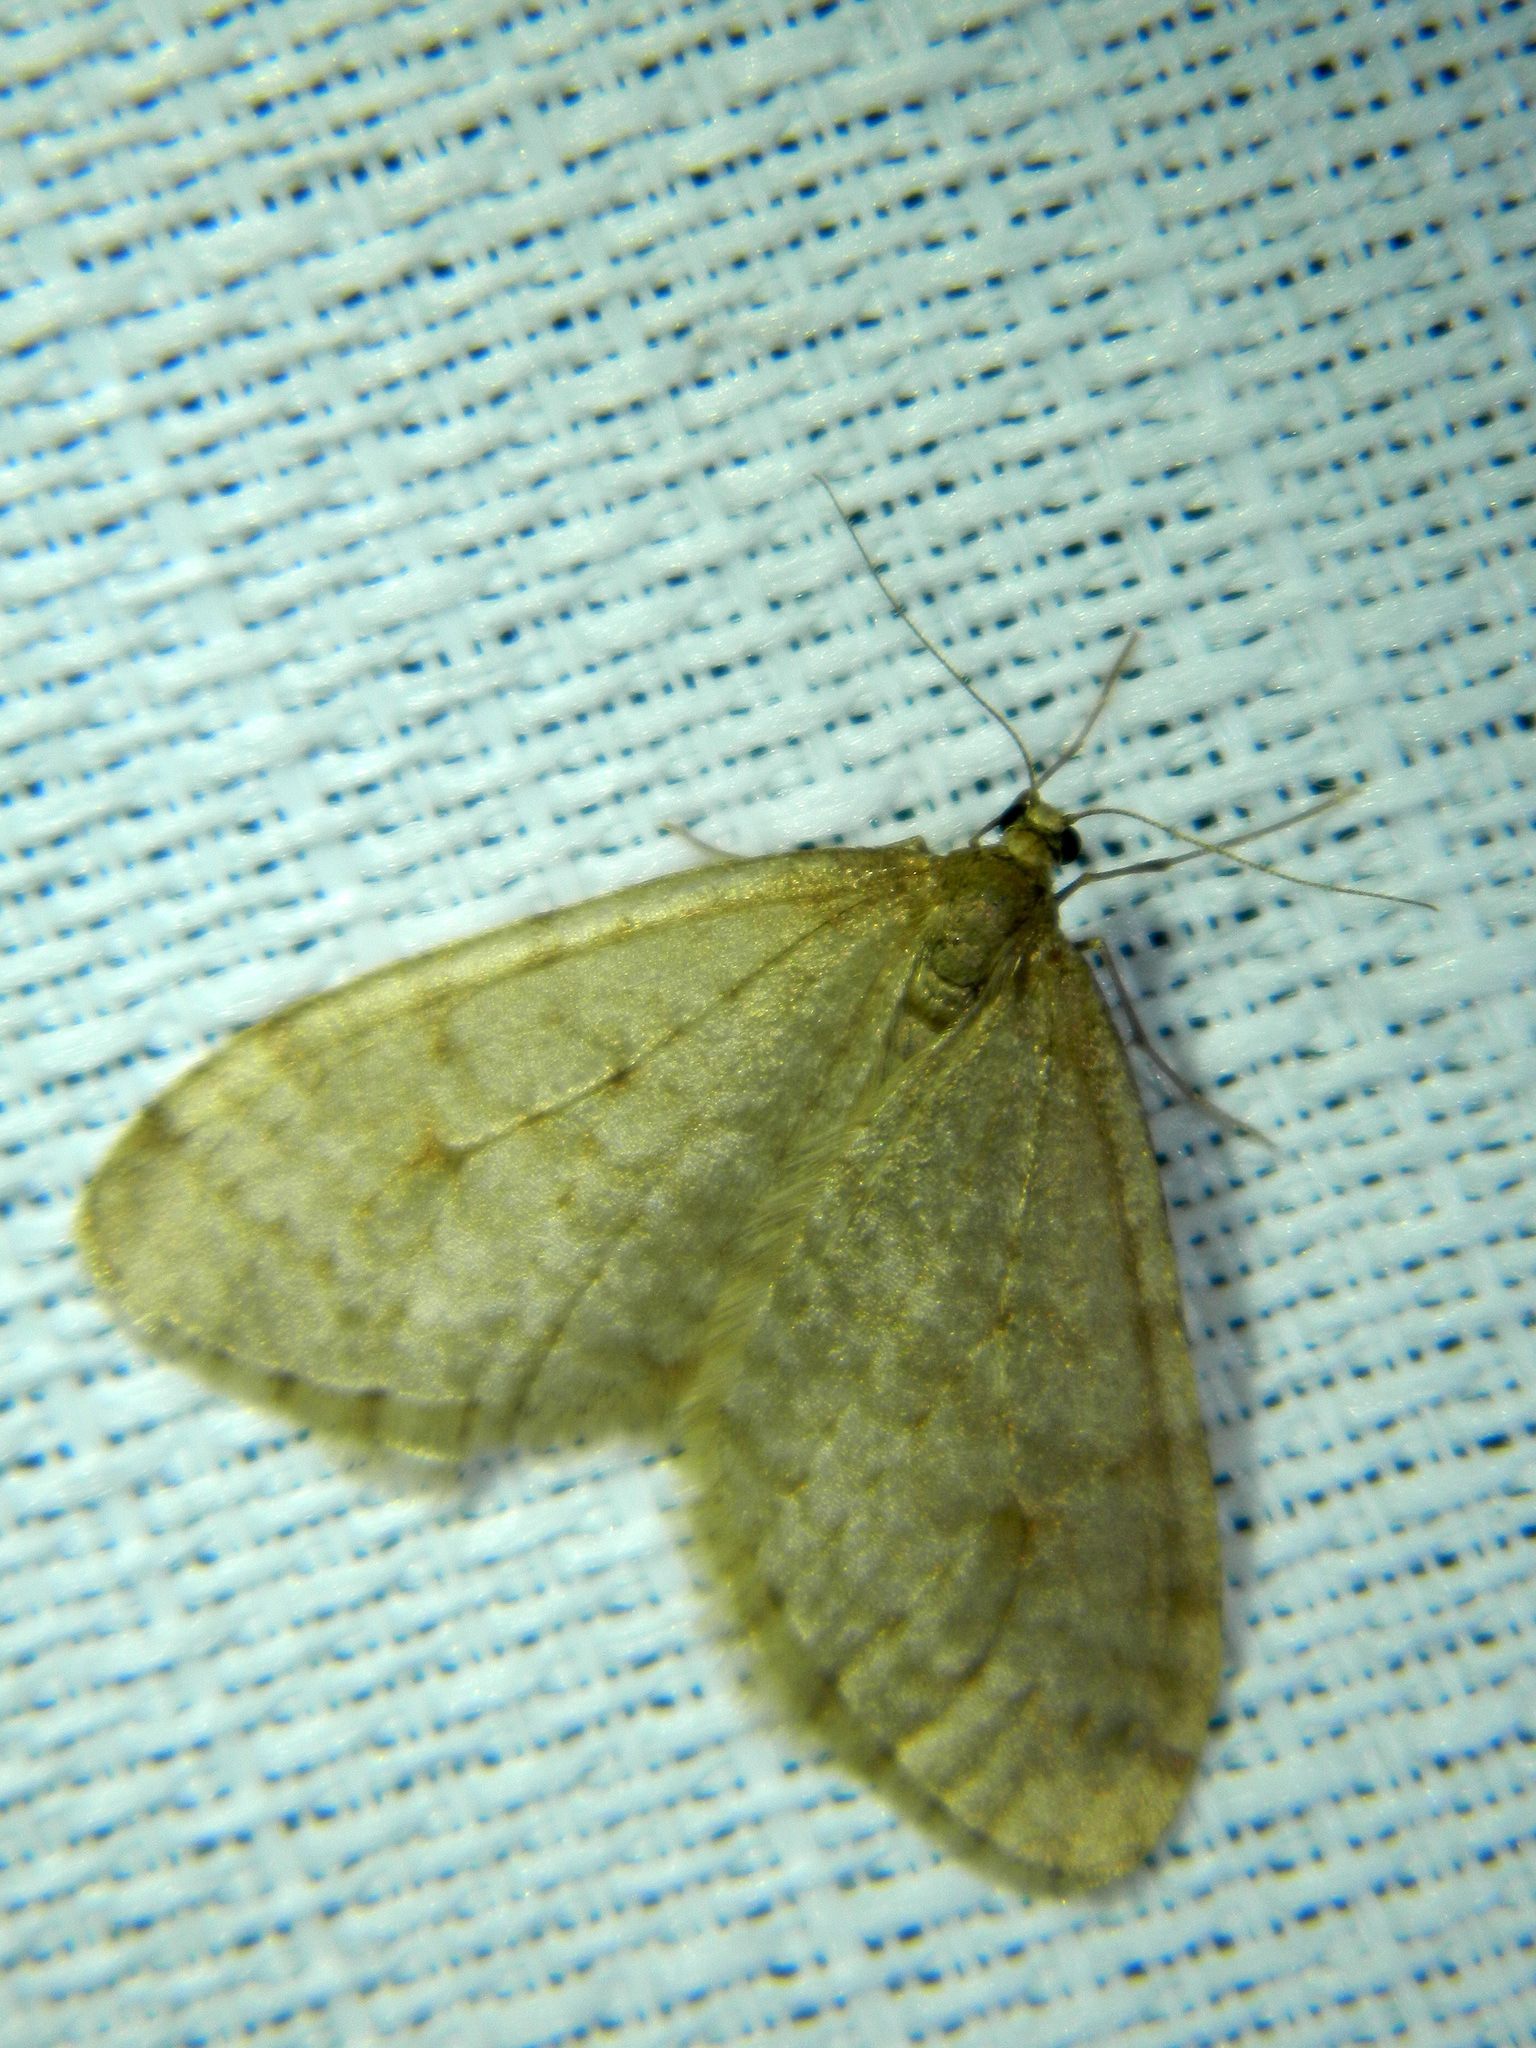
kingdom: Animalia
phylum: Arthropoda
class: Insecta
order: Lepidoptera
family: Geometridae
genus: Operophtera
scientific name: Operophtera bruceata
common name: Bruce spanworm
